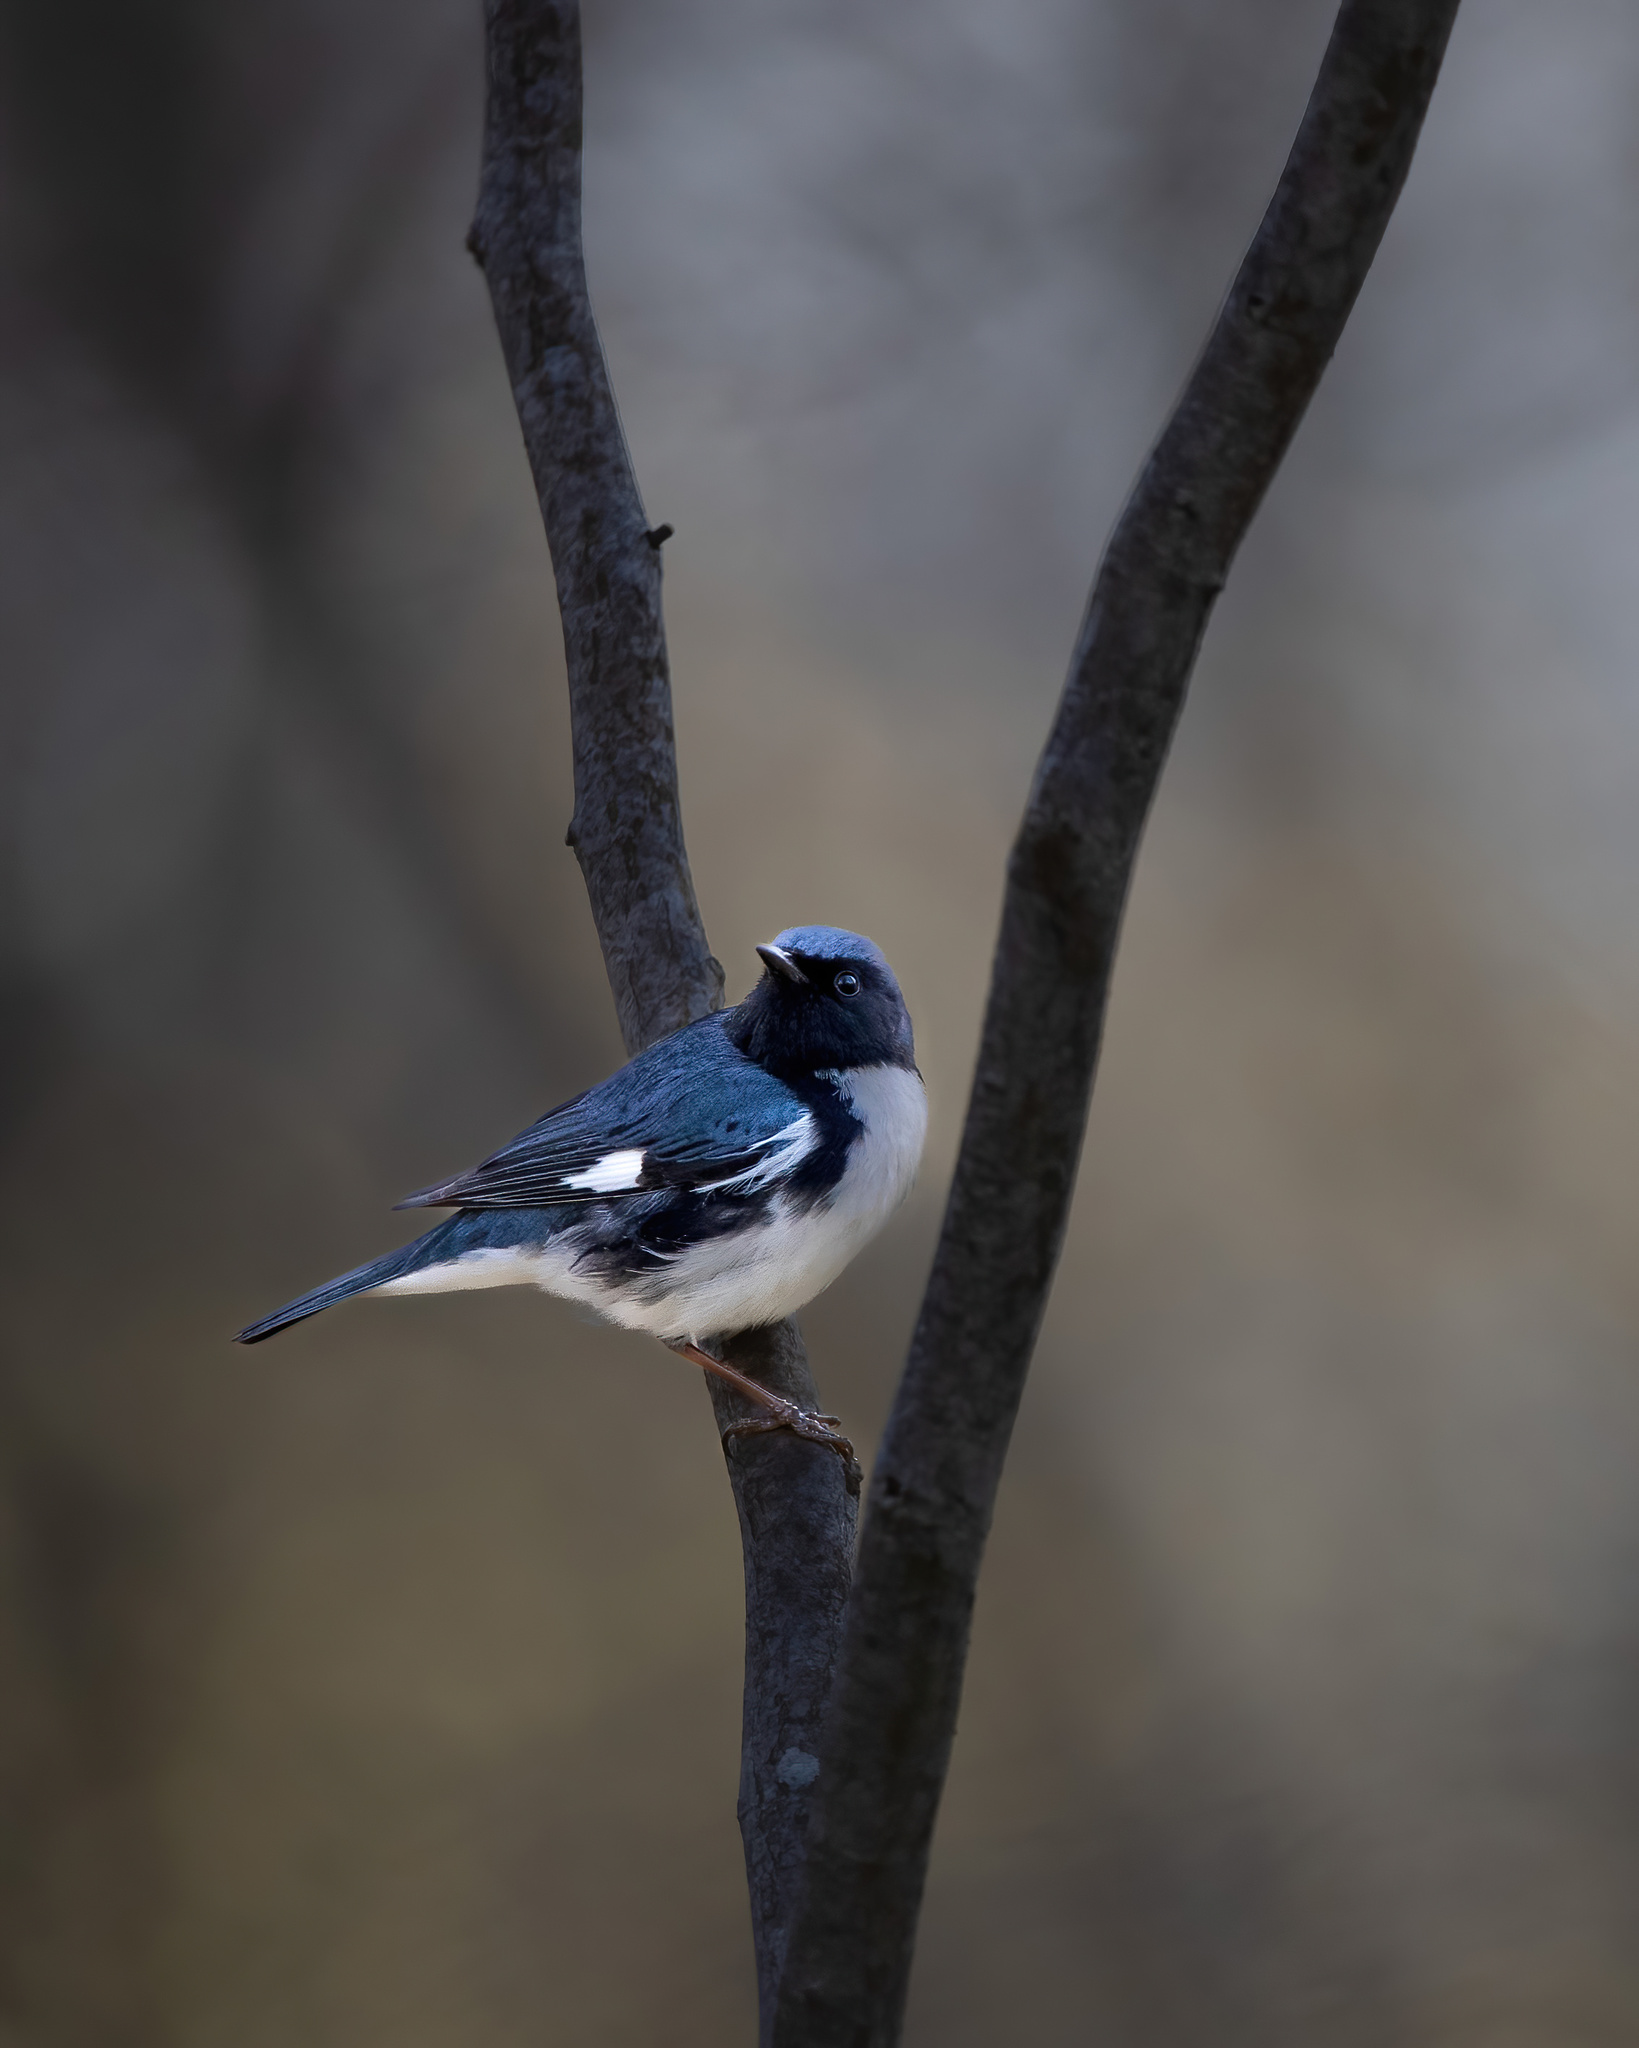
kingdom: Animalia
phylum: Chordata
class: Aves
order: Passeriformes
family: Parulidae
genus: Setophaga
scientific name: Setophaga caerulescens
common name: Black-throated blue warbler
